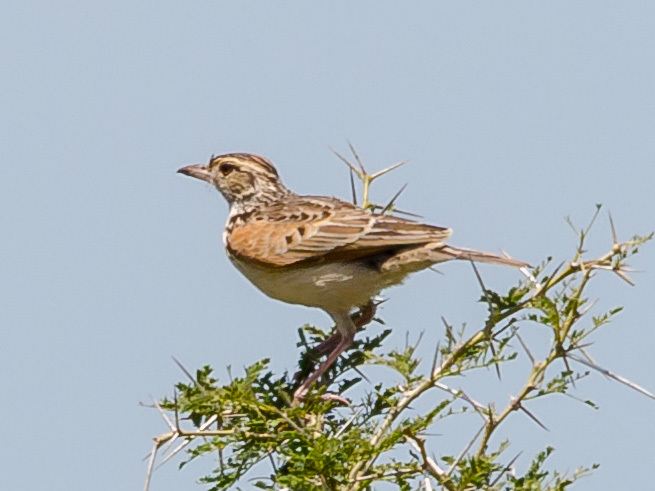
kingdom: Animalia
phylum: Chordata
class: Aves
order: Passeriformes
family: Alaudidae
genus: Mirafra
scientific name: Mirafra africana
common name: Rufous-naped lark
